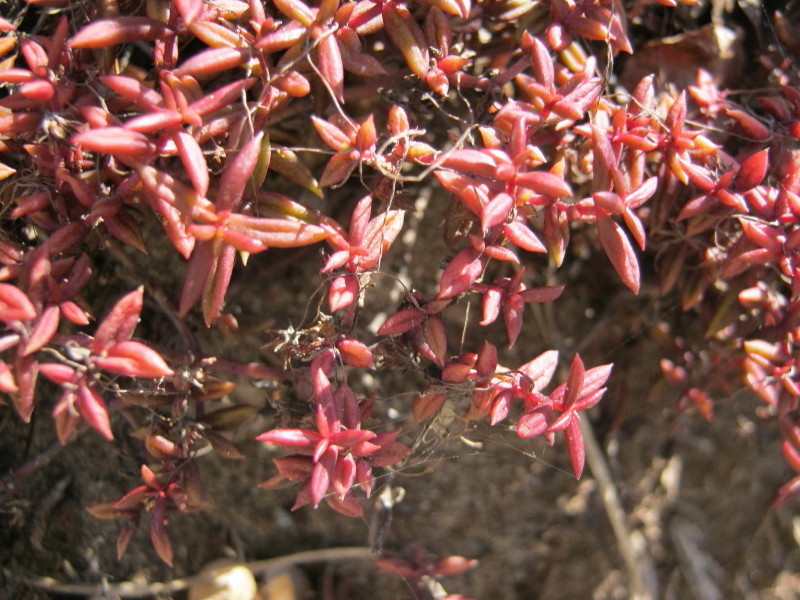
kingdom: Plantae
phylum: Tracheophyta
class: Magnoliopsida
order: Saxifragales
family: Crassulaceae
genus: Crassula
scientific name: Crassula expansa
